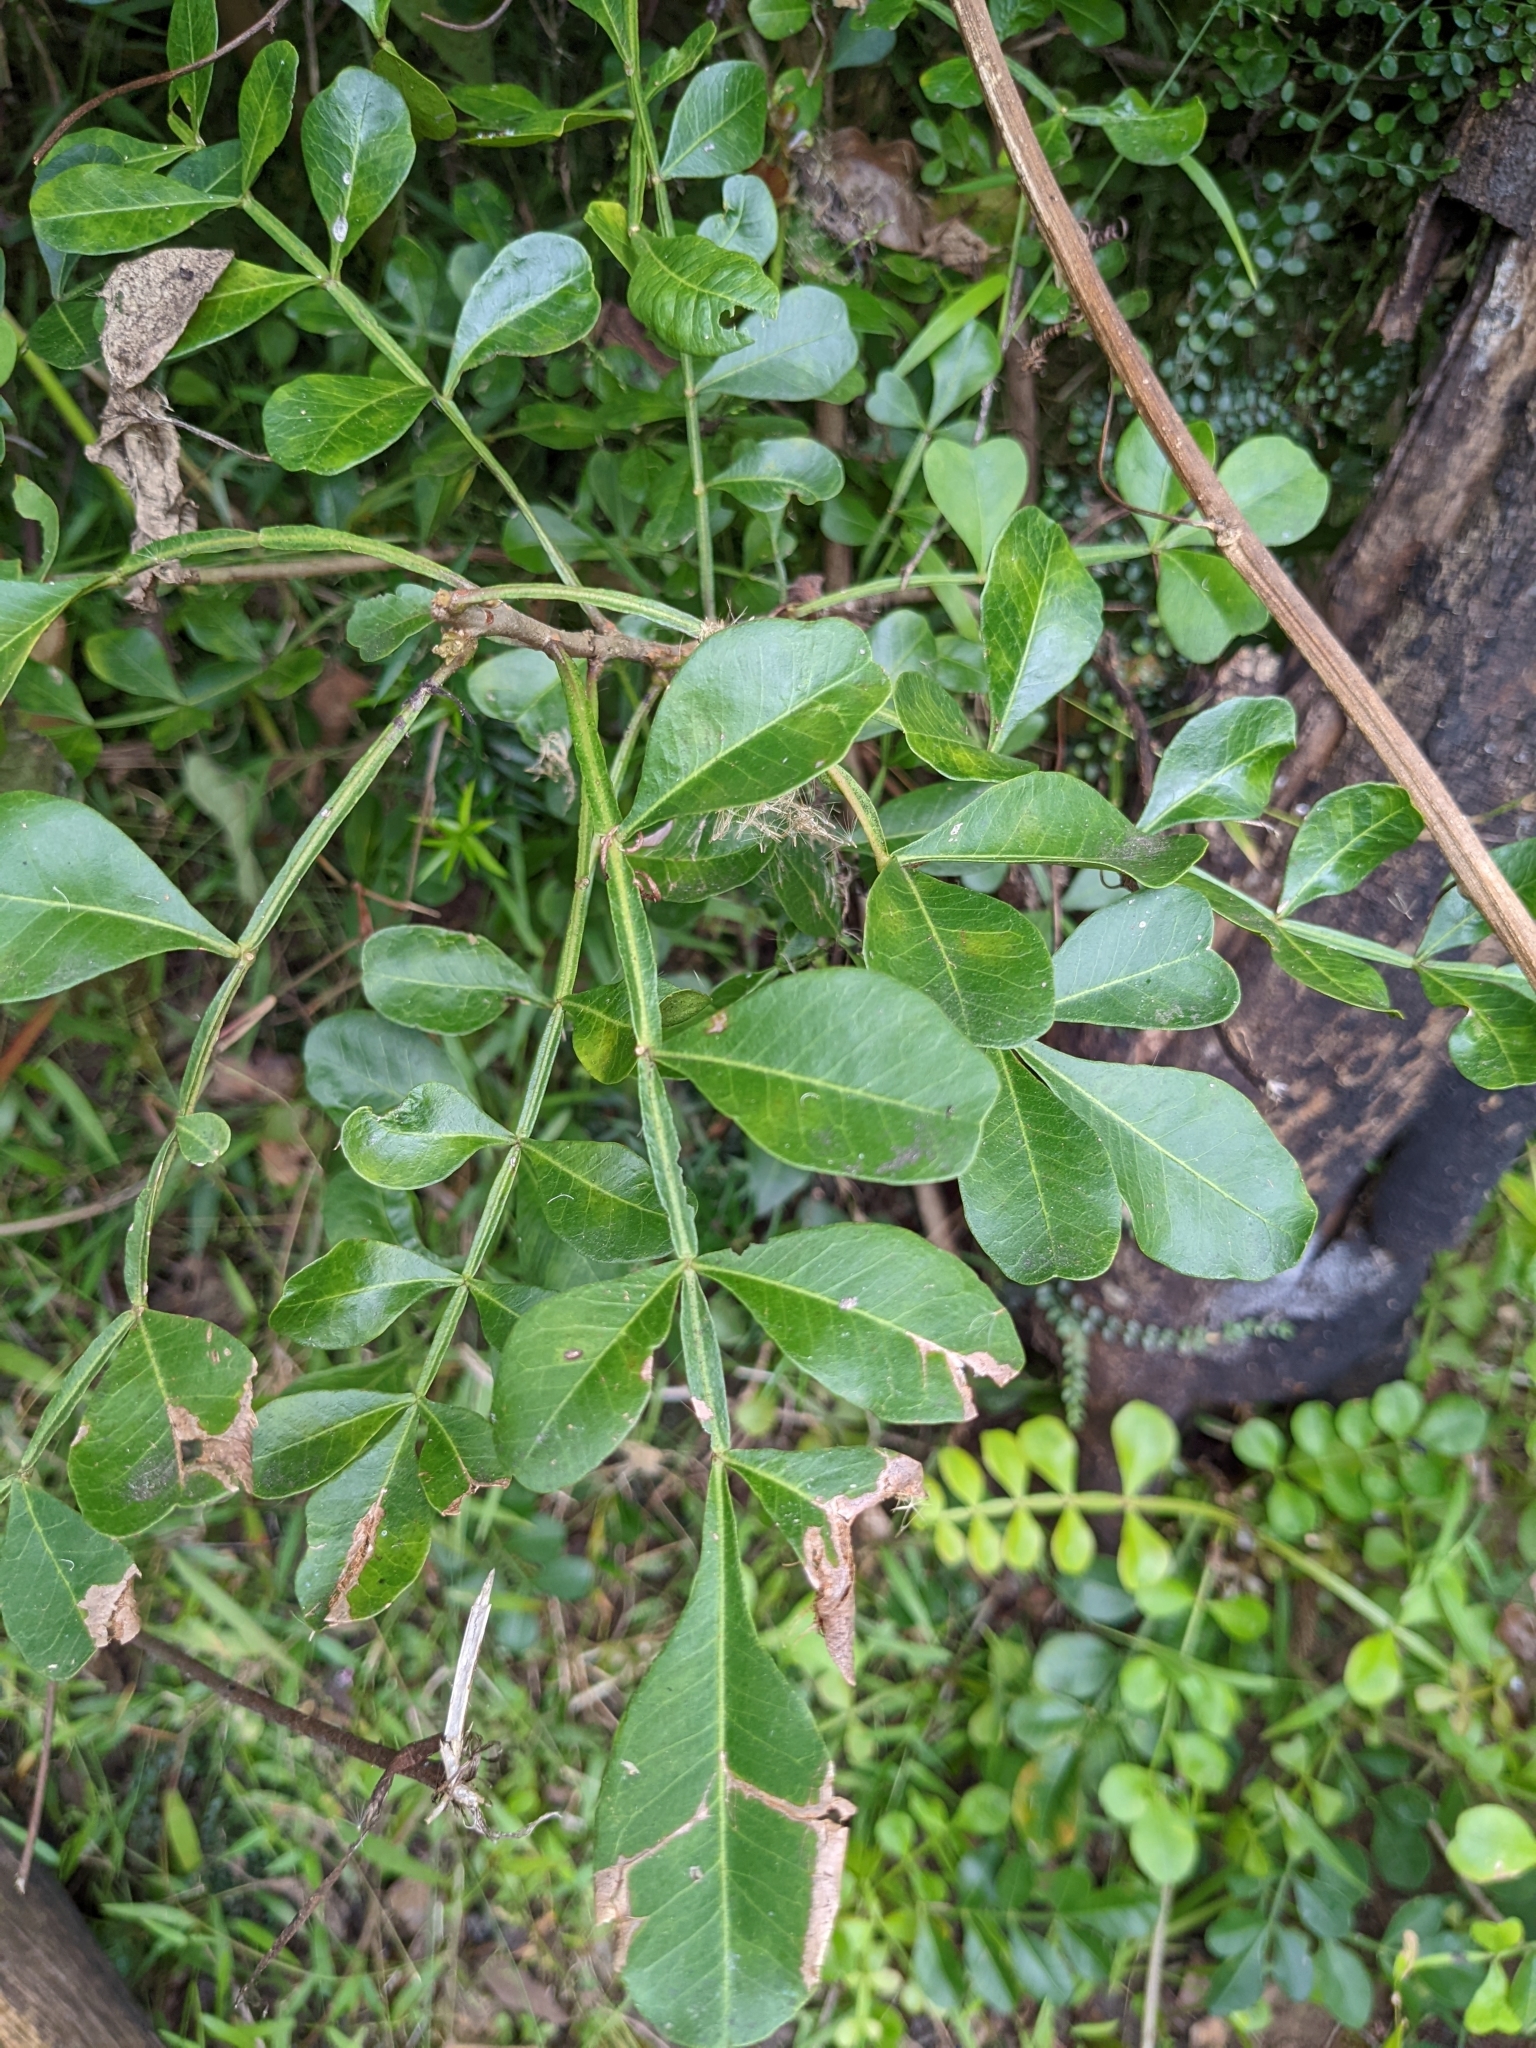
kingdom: Plantae
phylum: Tracheophyta
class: Magnoliopsida
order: Sapindales
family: Rutaceae
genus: Flindersia
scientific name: Flindersia collina
